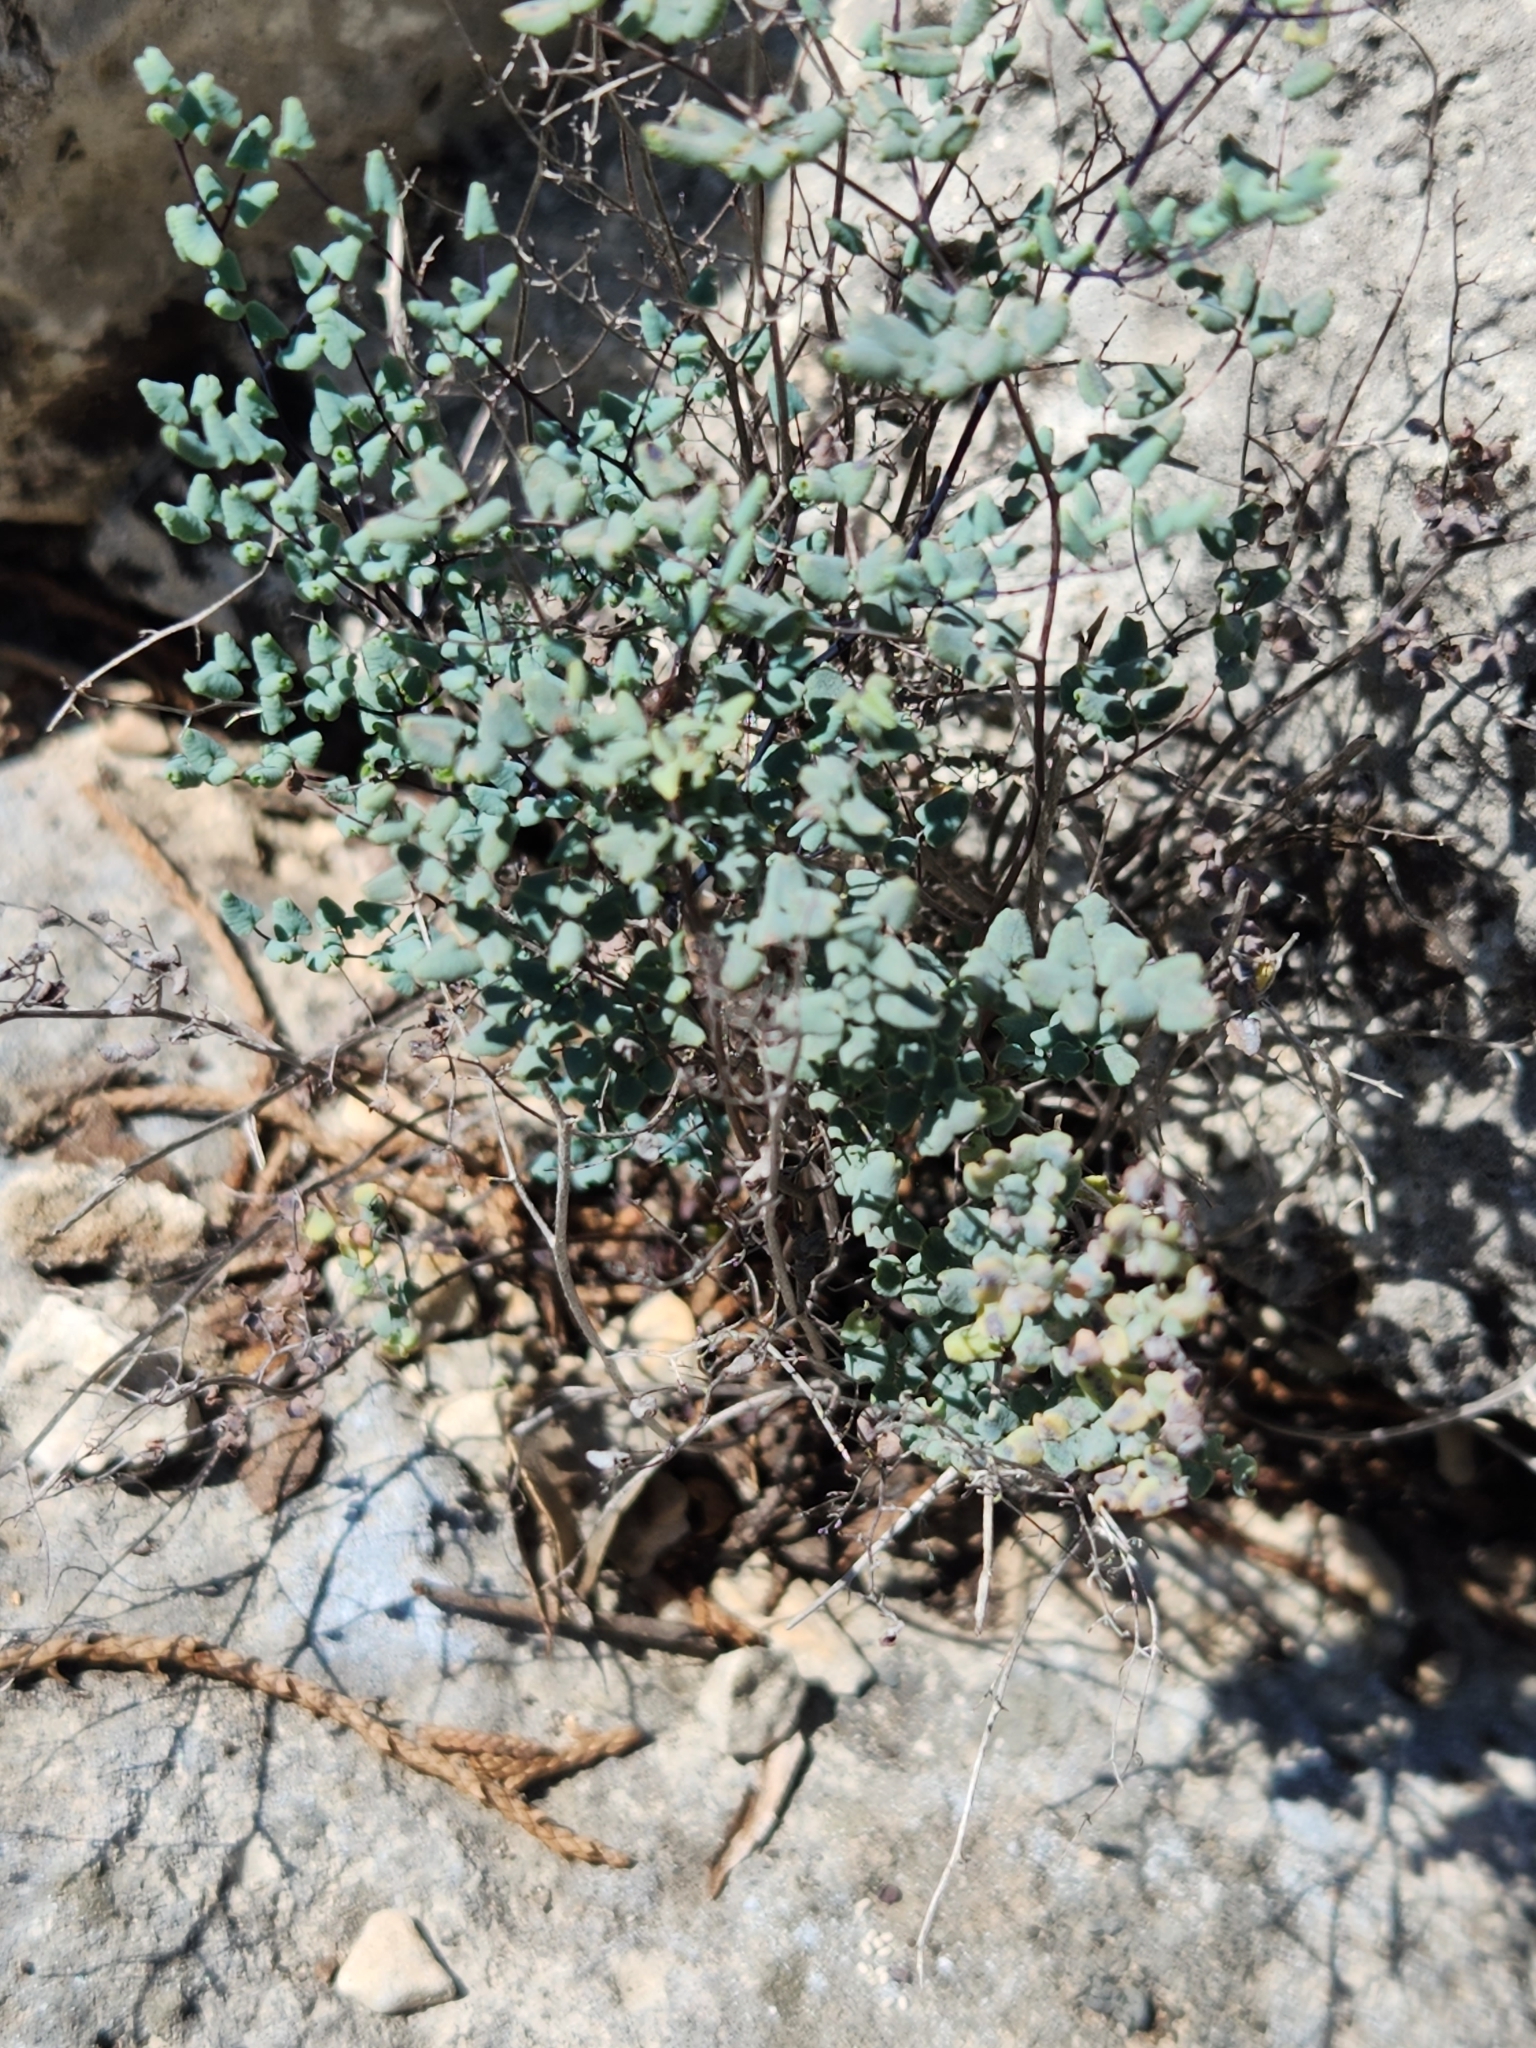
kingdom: Plantae
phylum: Tracheophyta
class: Polypodiopsida
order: Polypodiales
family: Pteridaceae
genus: Argyrochosma
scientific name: Argyrochosma microphylla
